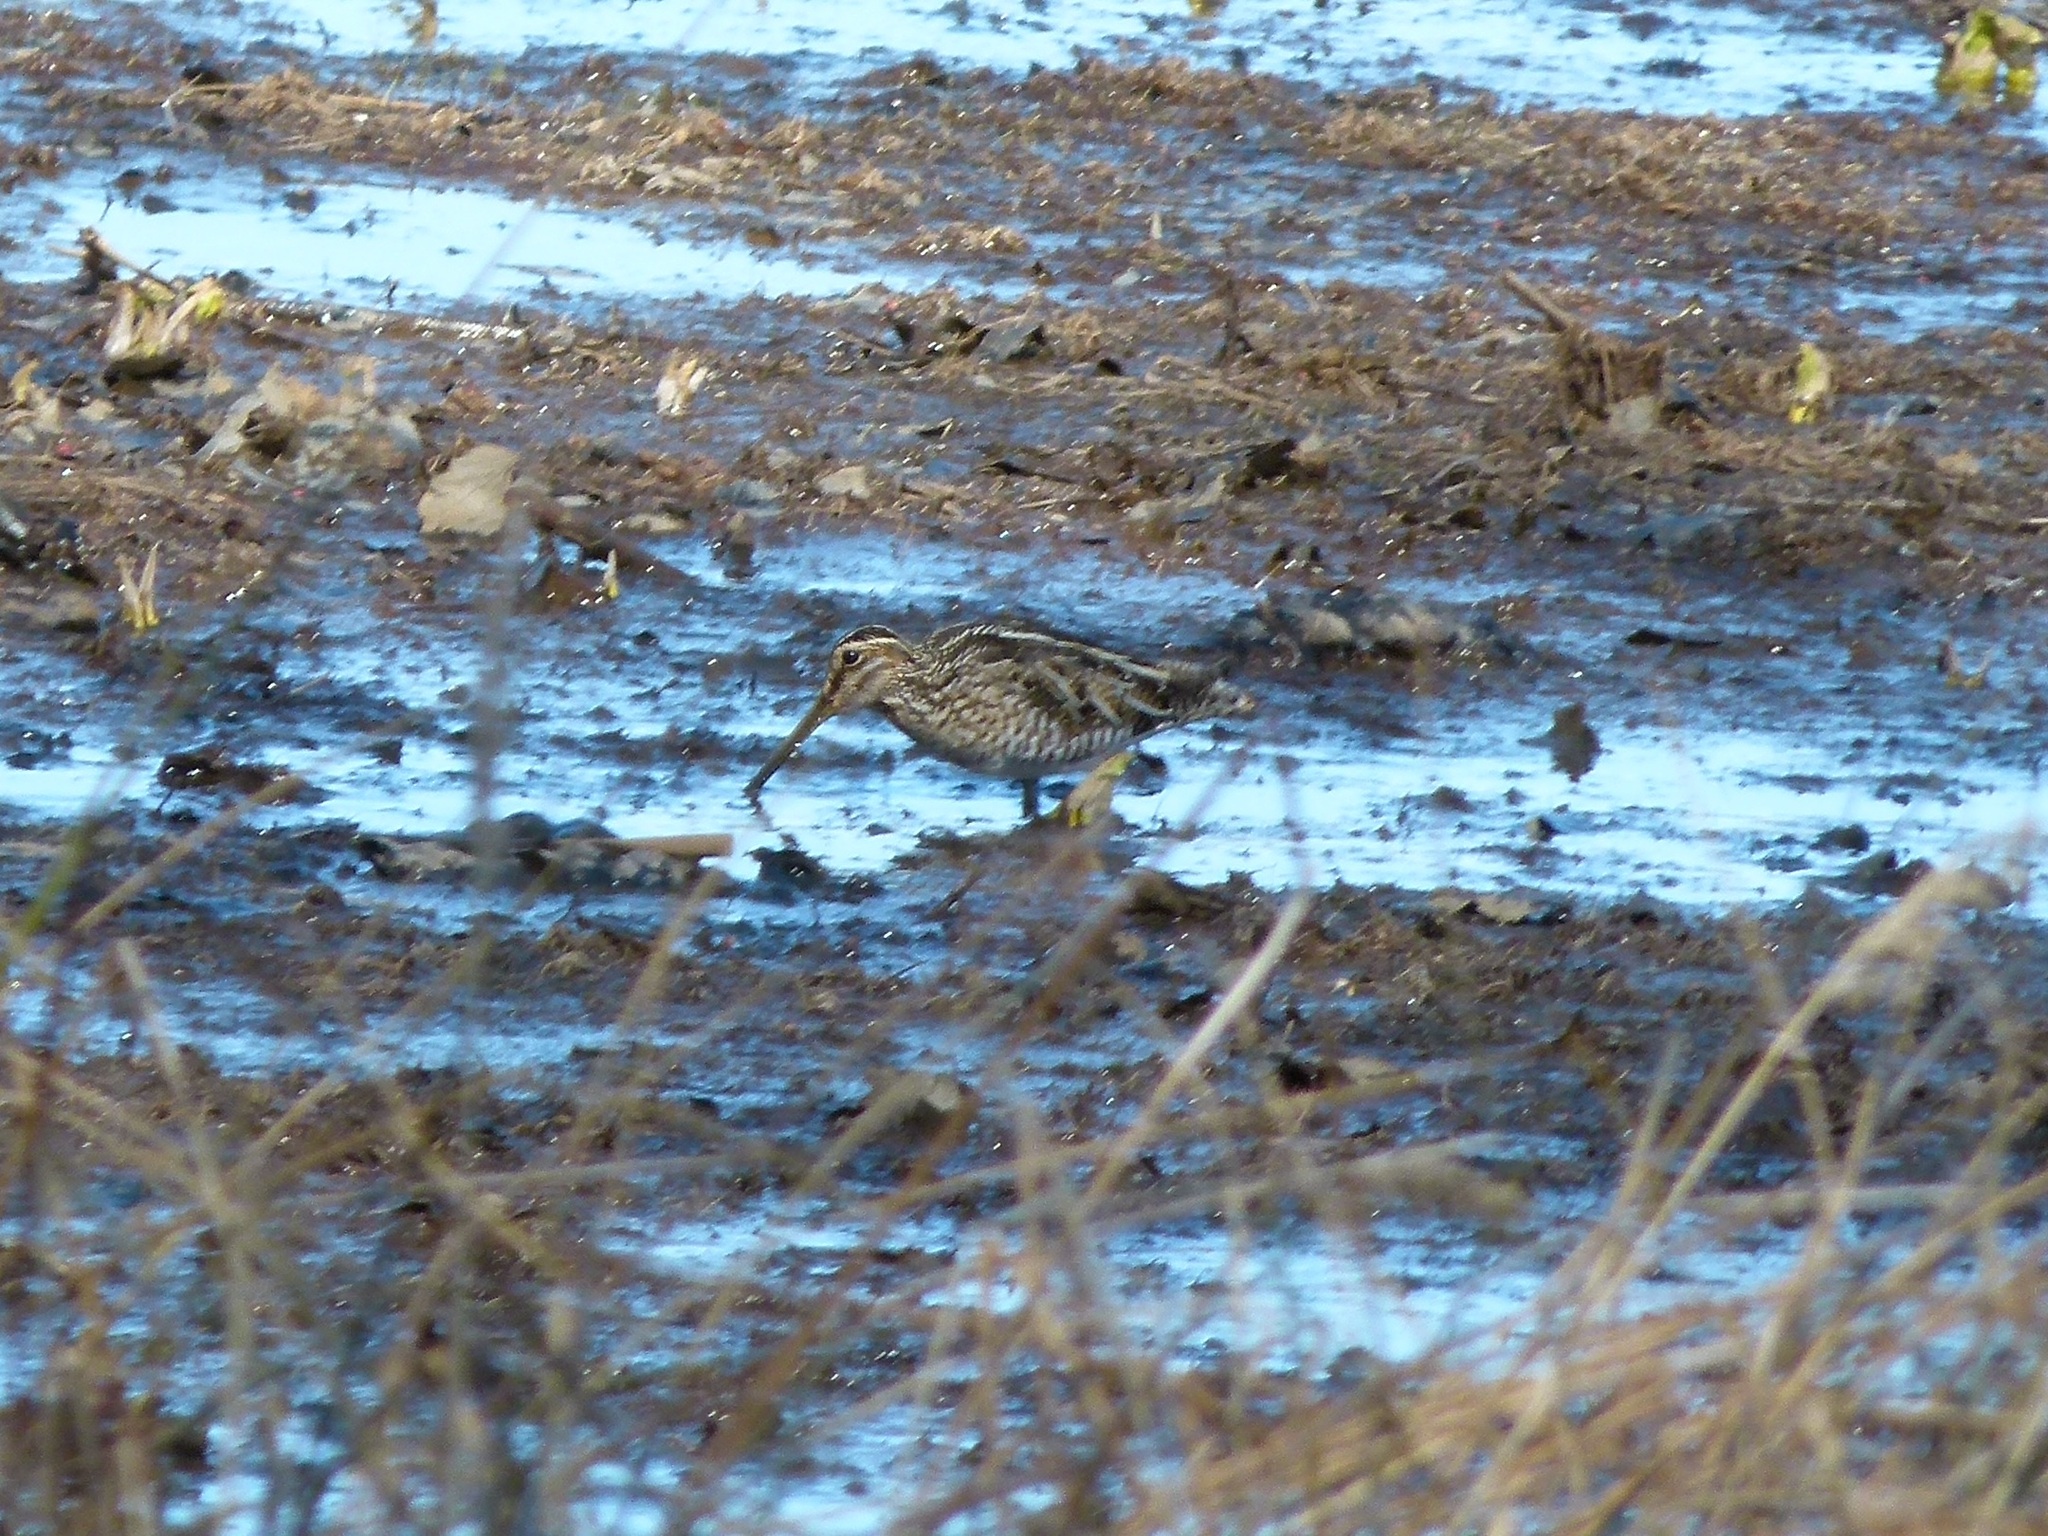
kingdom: Animalia
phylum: Chordata
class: Aves
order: Charadriiformes
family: Scolopacidae
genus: Gallinago
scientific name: Gallinago delicata
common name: Wilson's snipe
